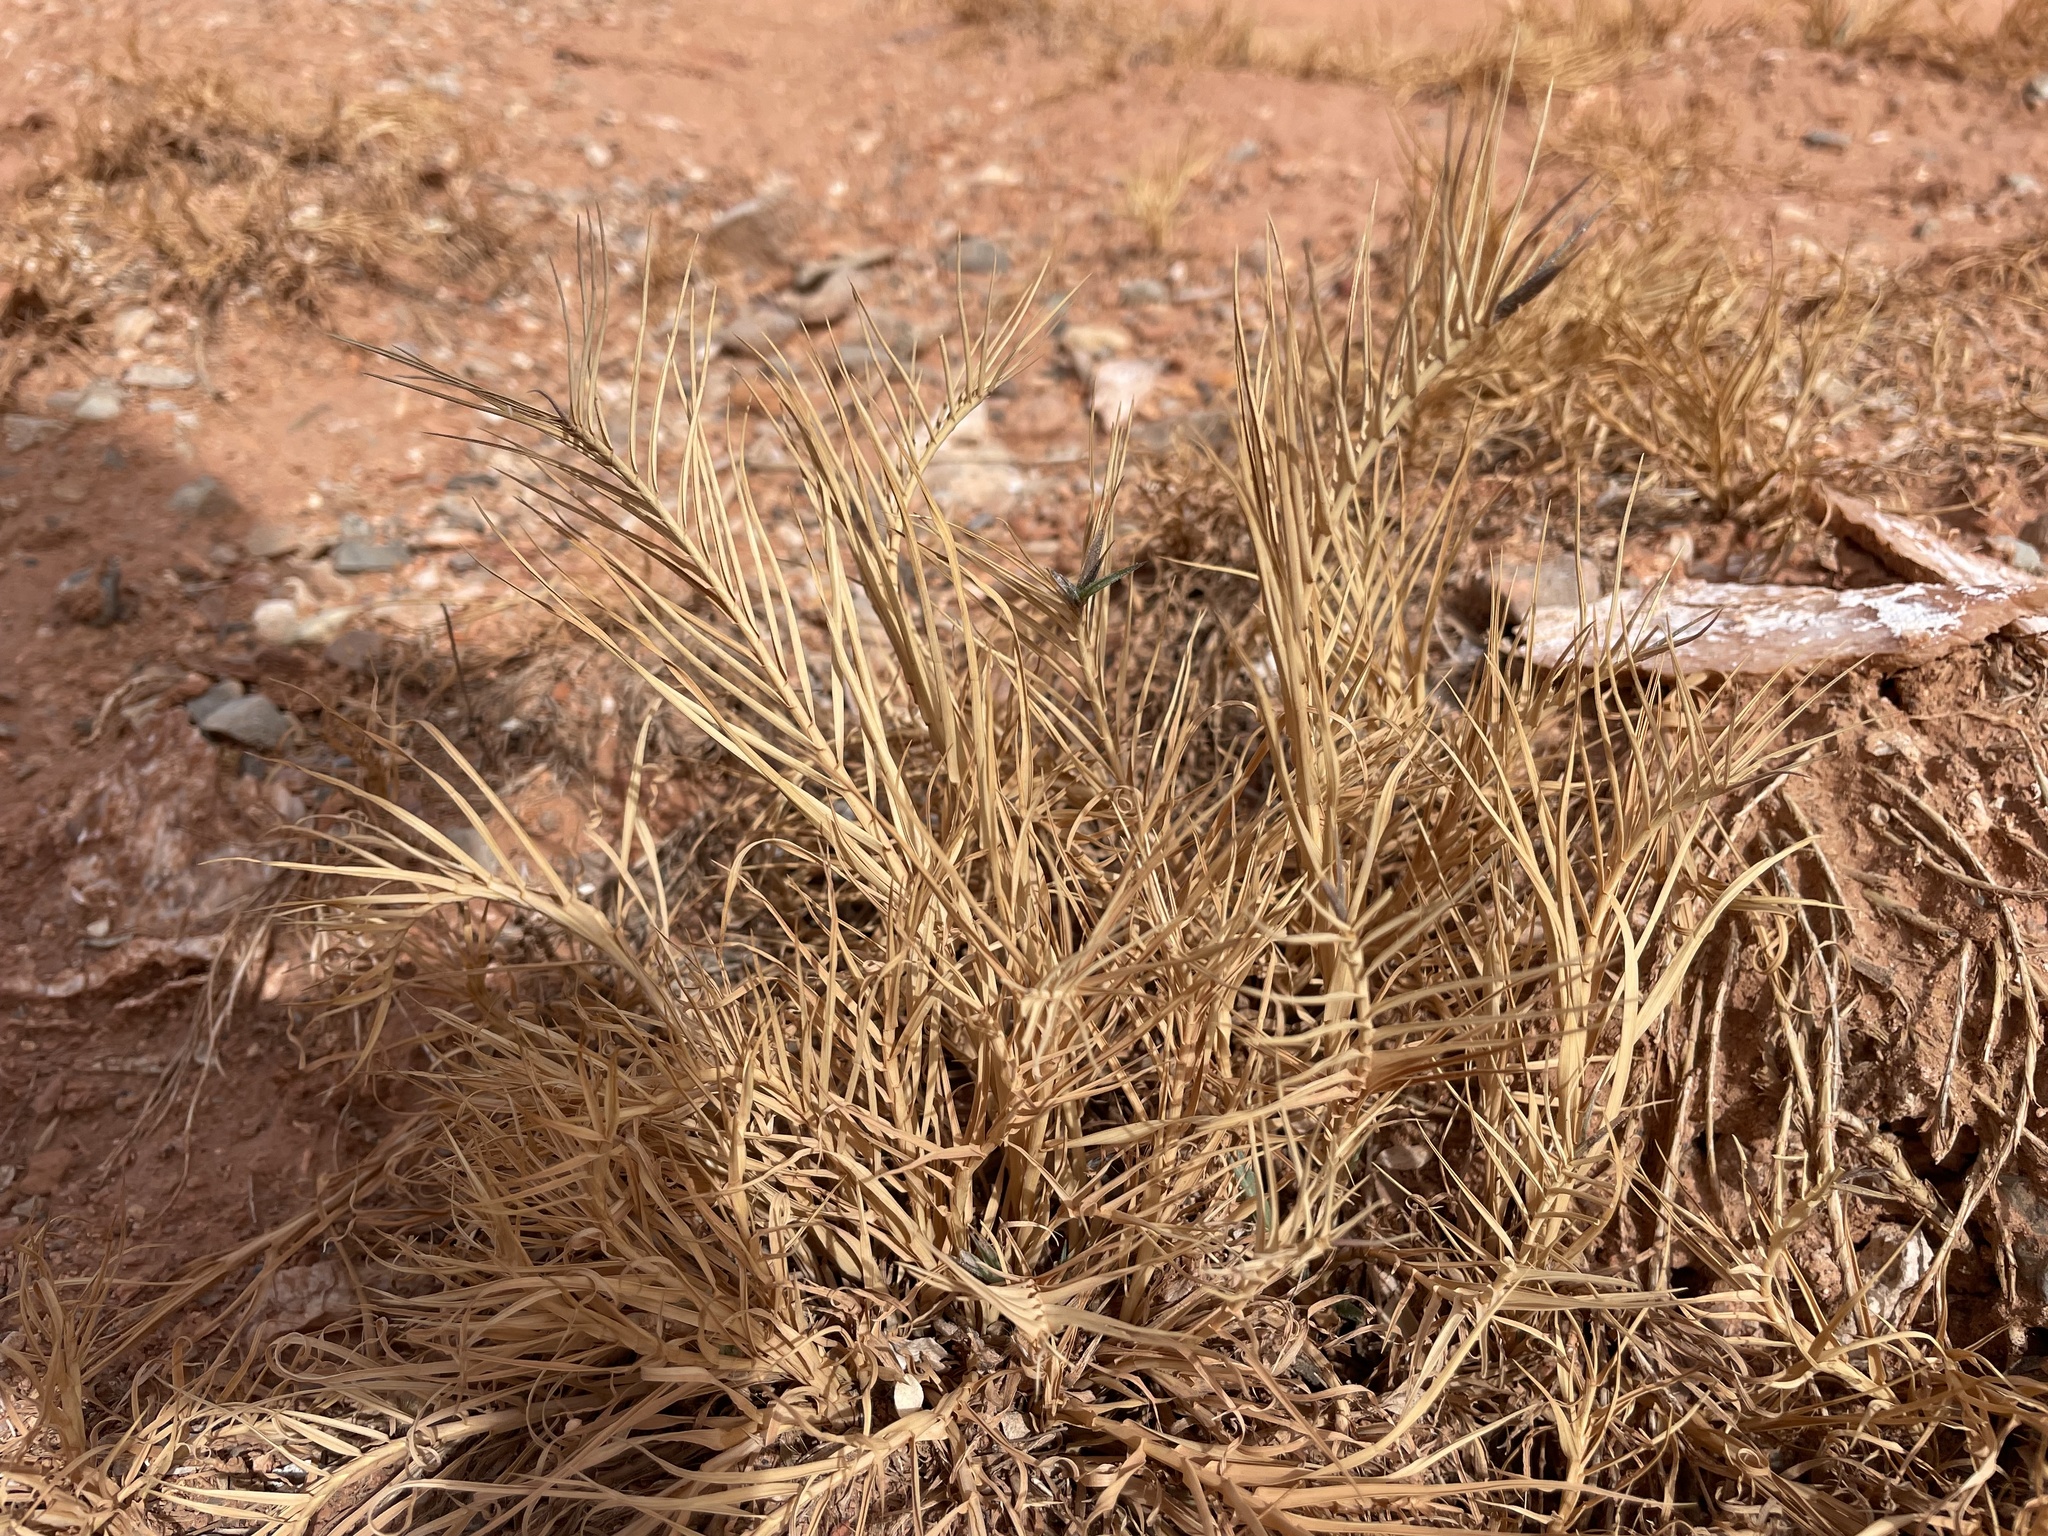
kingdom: Plantae
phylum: Tracheophyta
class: Liliopsida
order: Poales
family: Poaceae
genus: Distichlis
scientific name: Distichlis spicata
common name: Saltgrass
